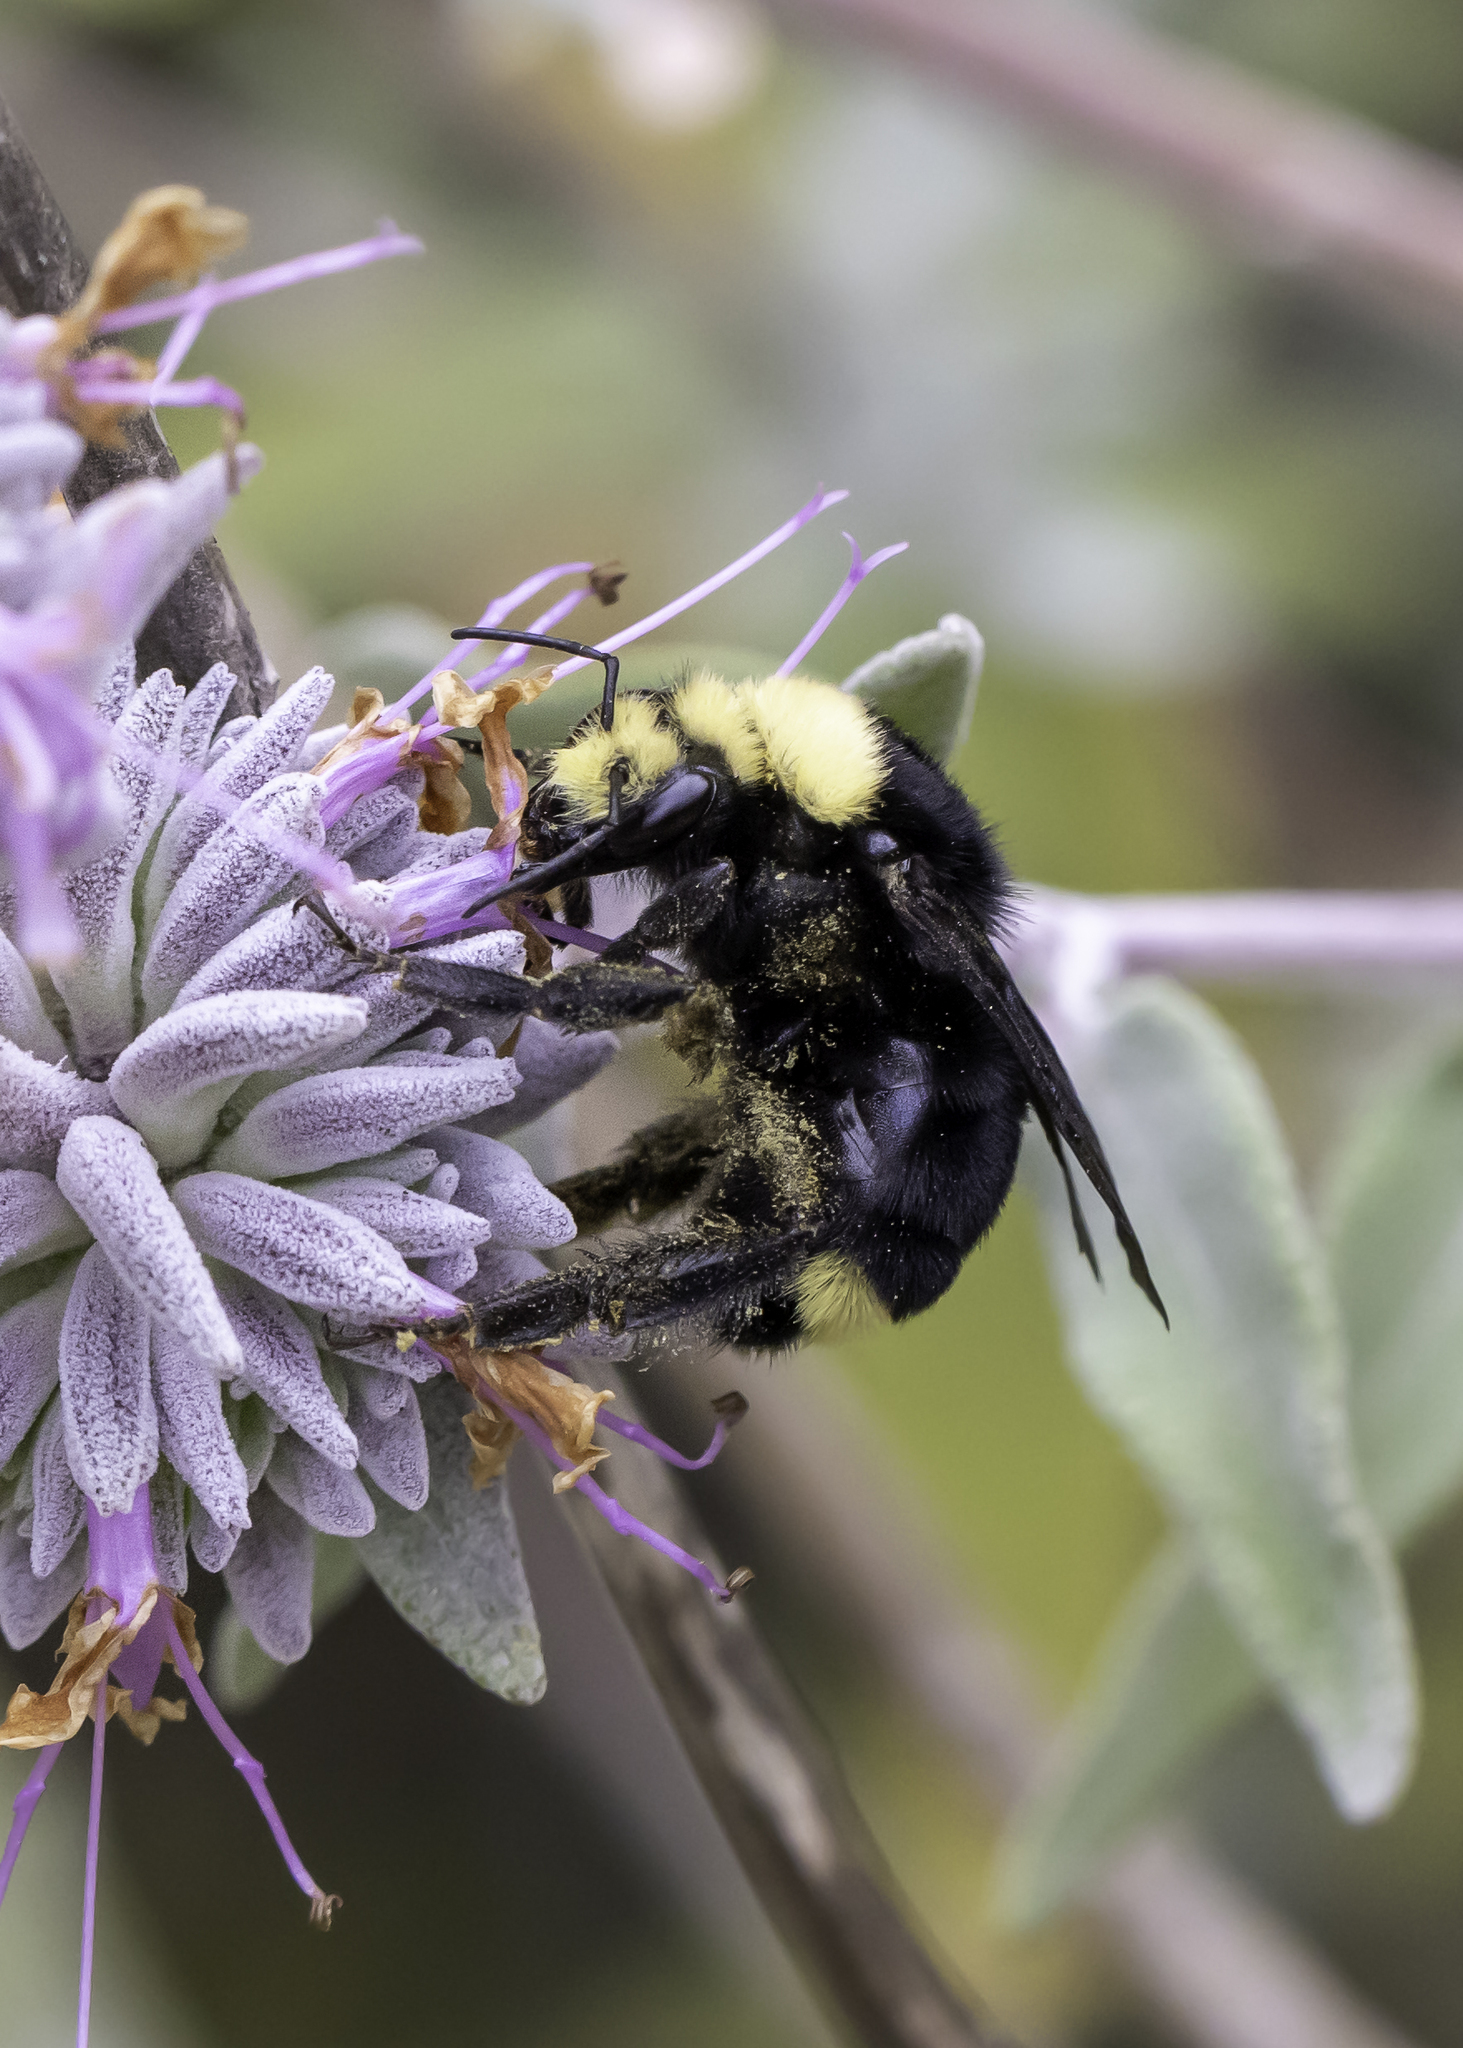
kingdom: Animalia
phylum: Arthropoda
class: Insecta
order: Hymenoptera
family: Apidae
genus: Bombus
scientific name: Bombus vosnesenskii
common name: Vosnesensky bumble bee
